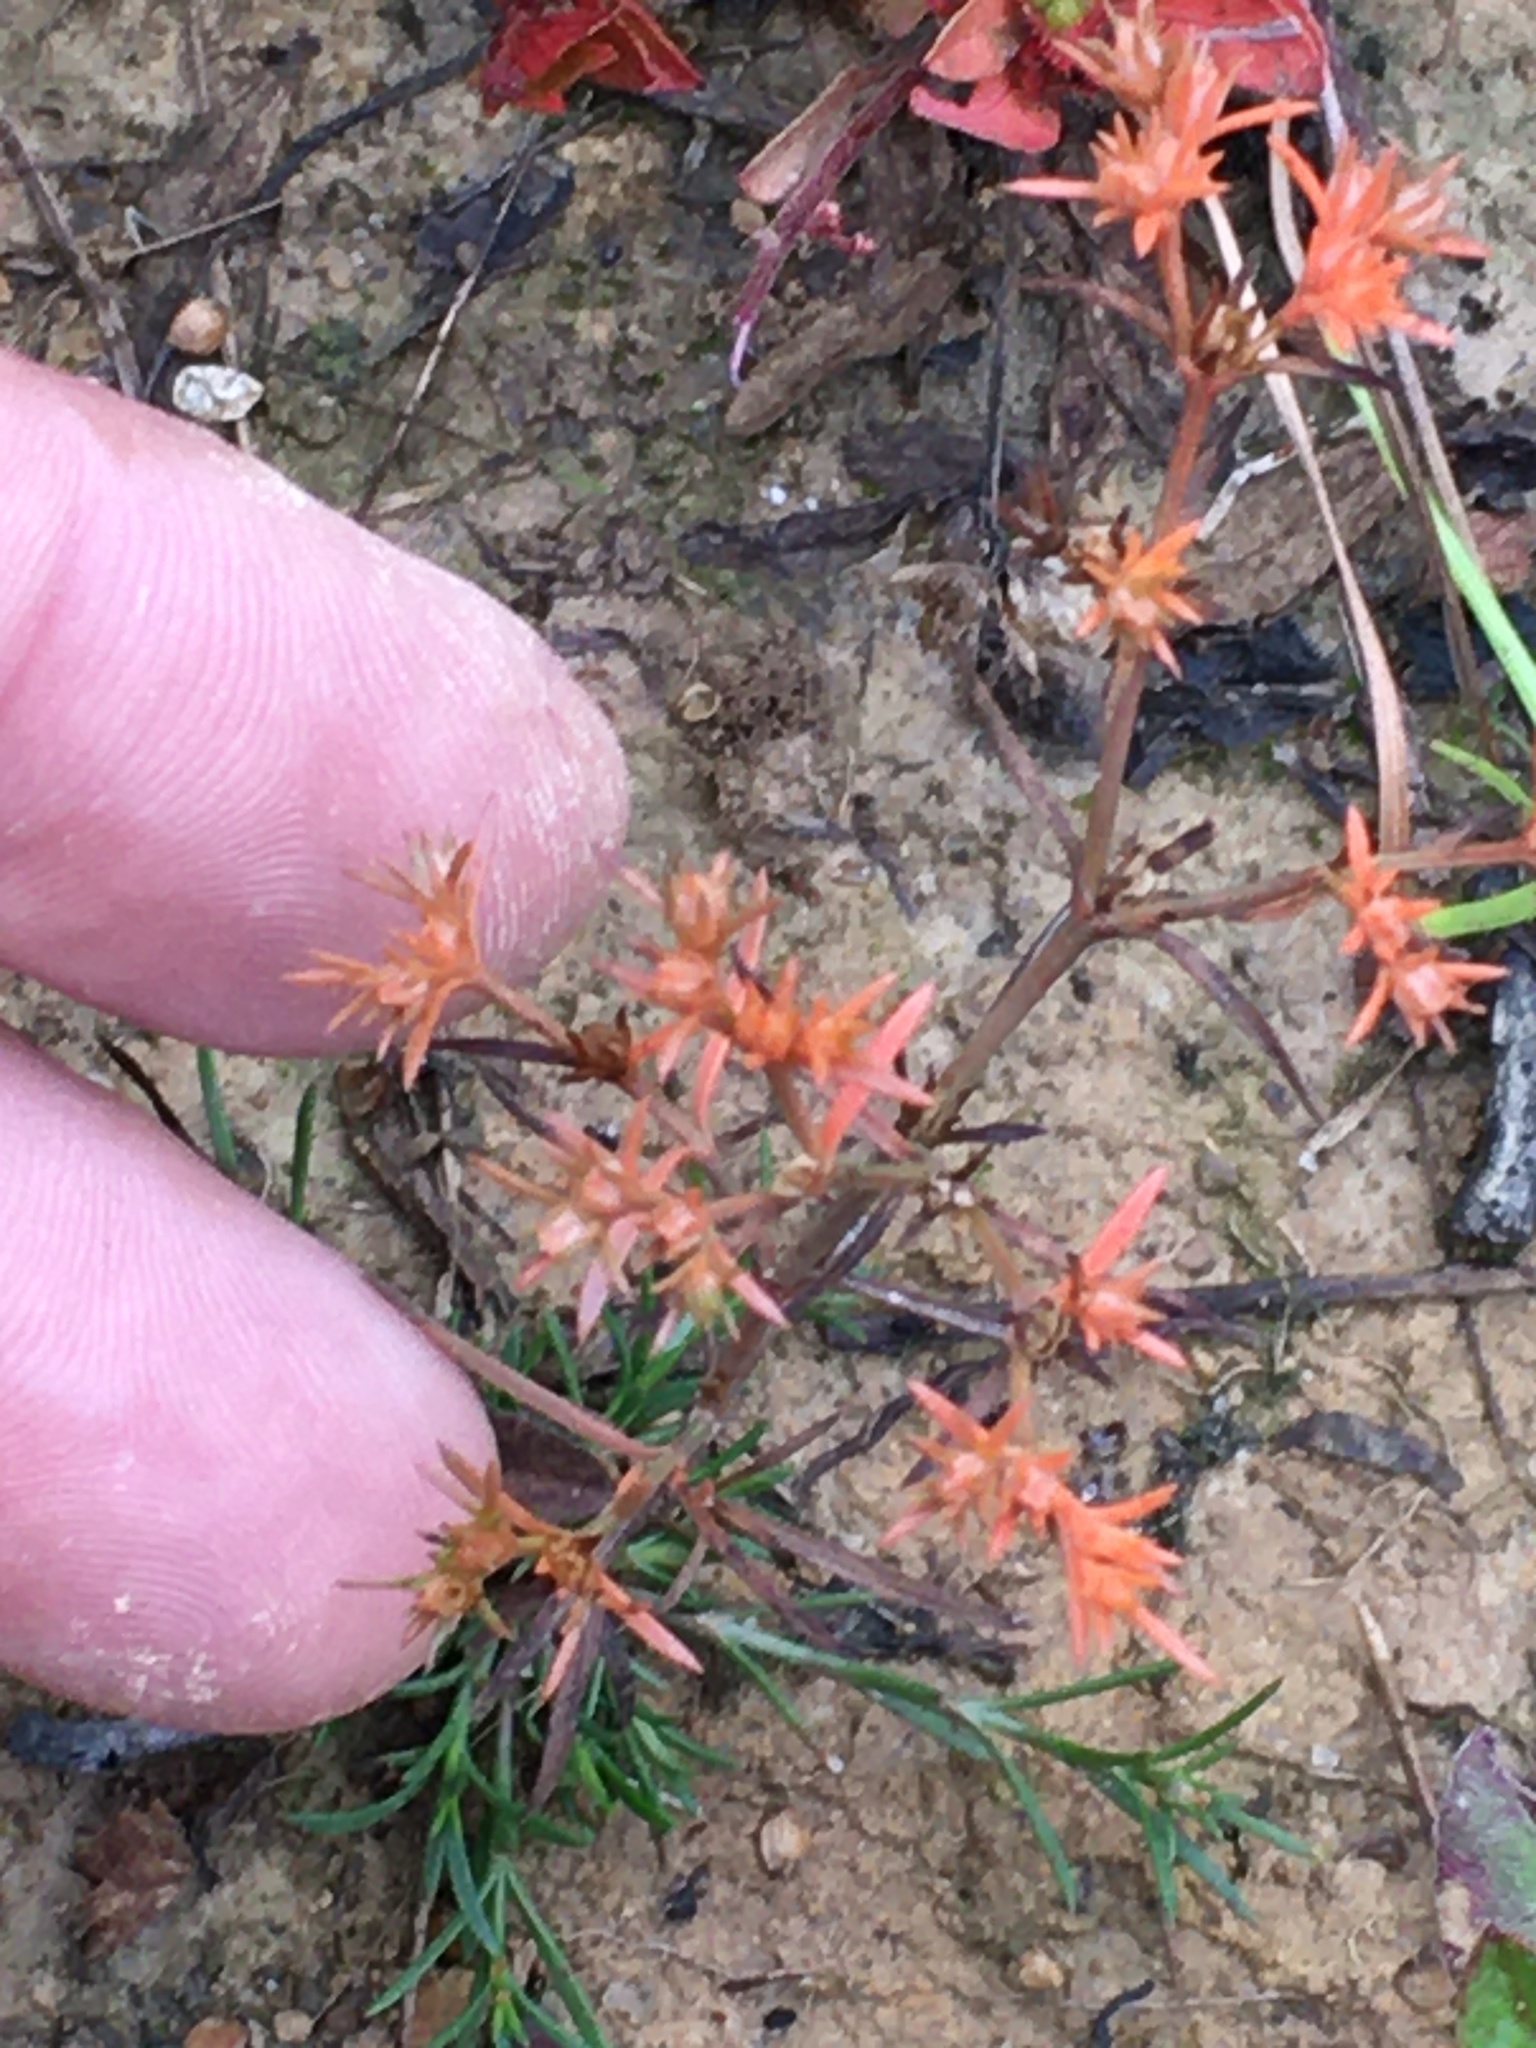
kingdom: Plantae
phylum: Tracheophyta
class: Magnoliopsida
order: Lamiales
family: Tetrachondraceae
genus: Polypremum
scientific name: Polypremum procumbens
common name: Juniper-leaf
